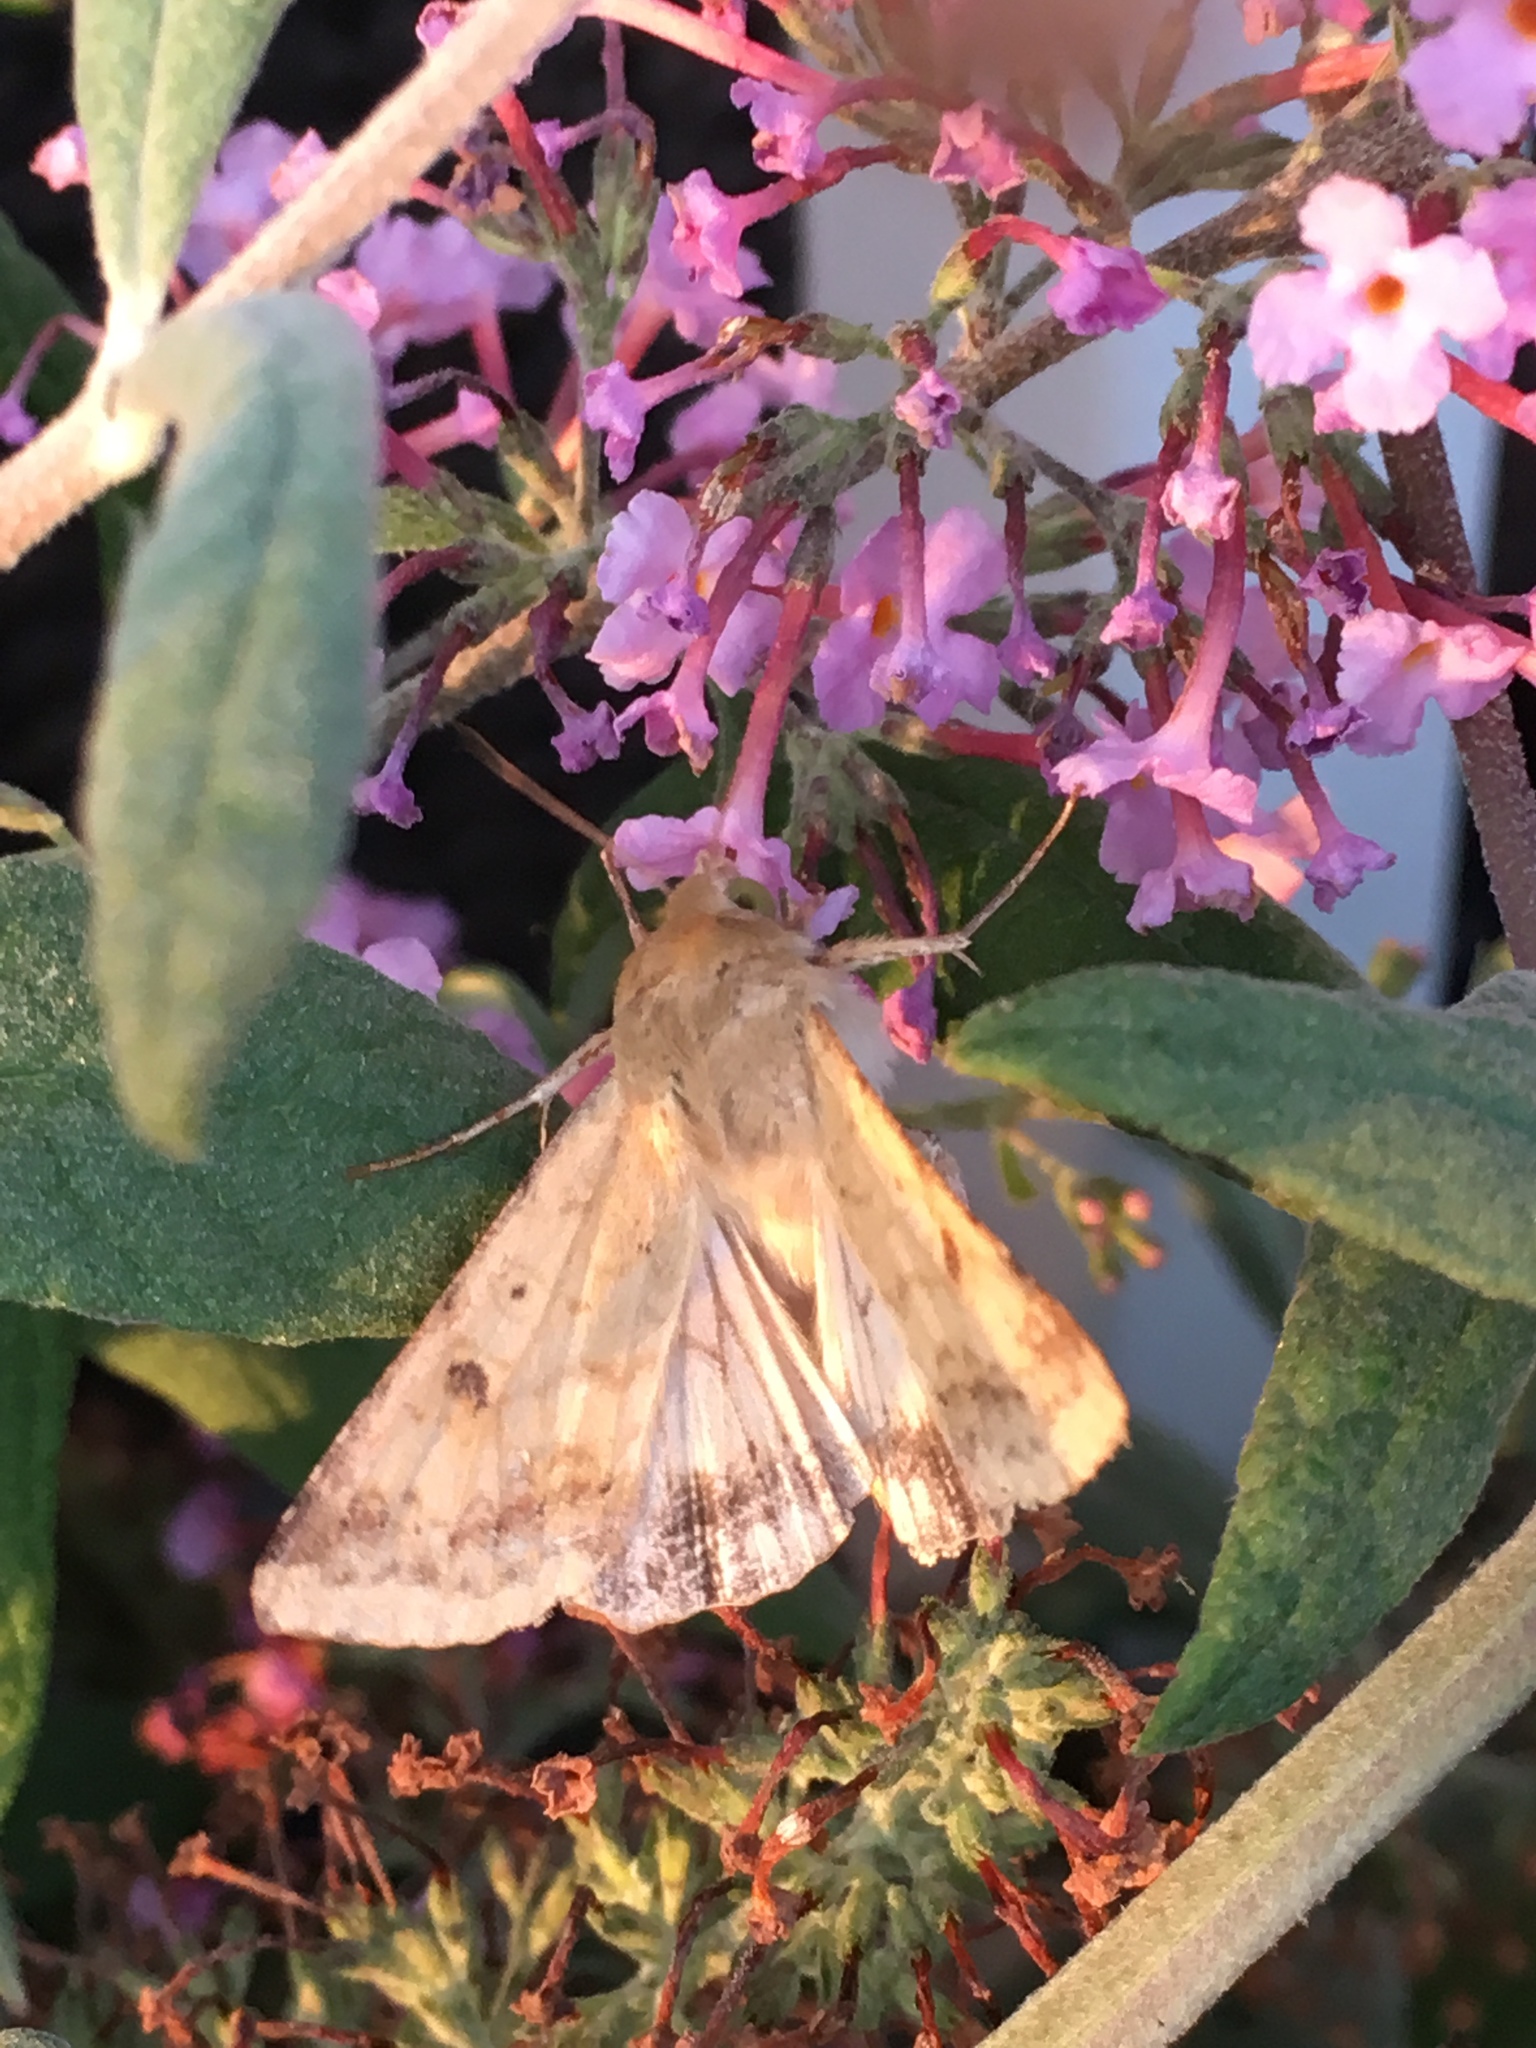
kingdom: Animalia
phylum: Arthropoda
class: Insecta
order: Lepidoptera
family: Noctuidae
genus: Helicoverpa
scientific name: Helicoverpa zea
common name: Bollworm
